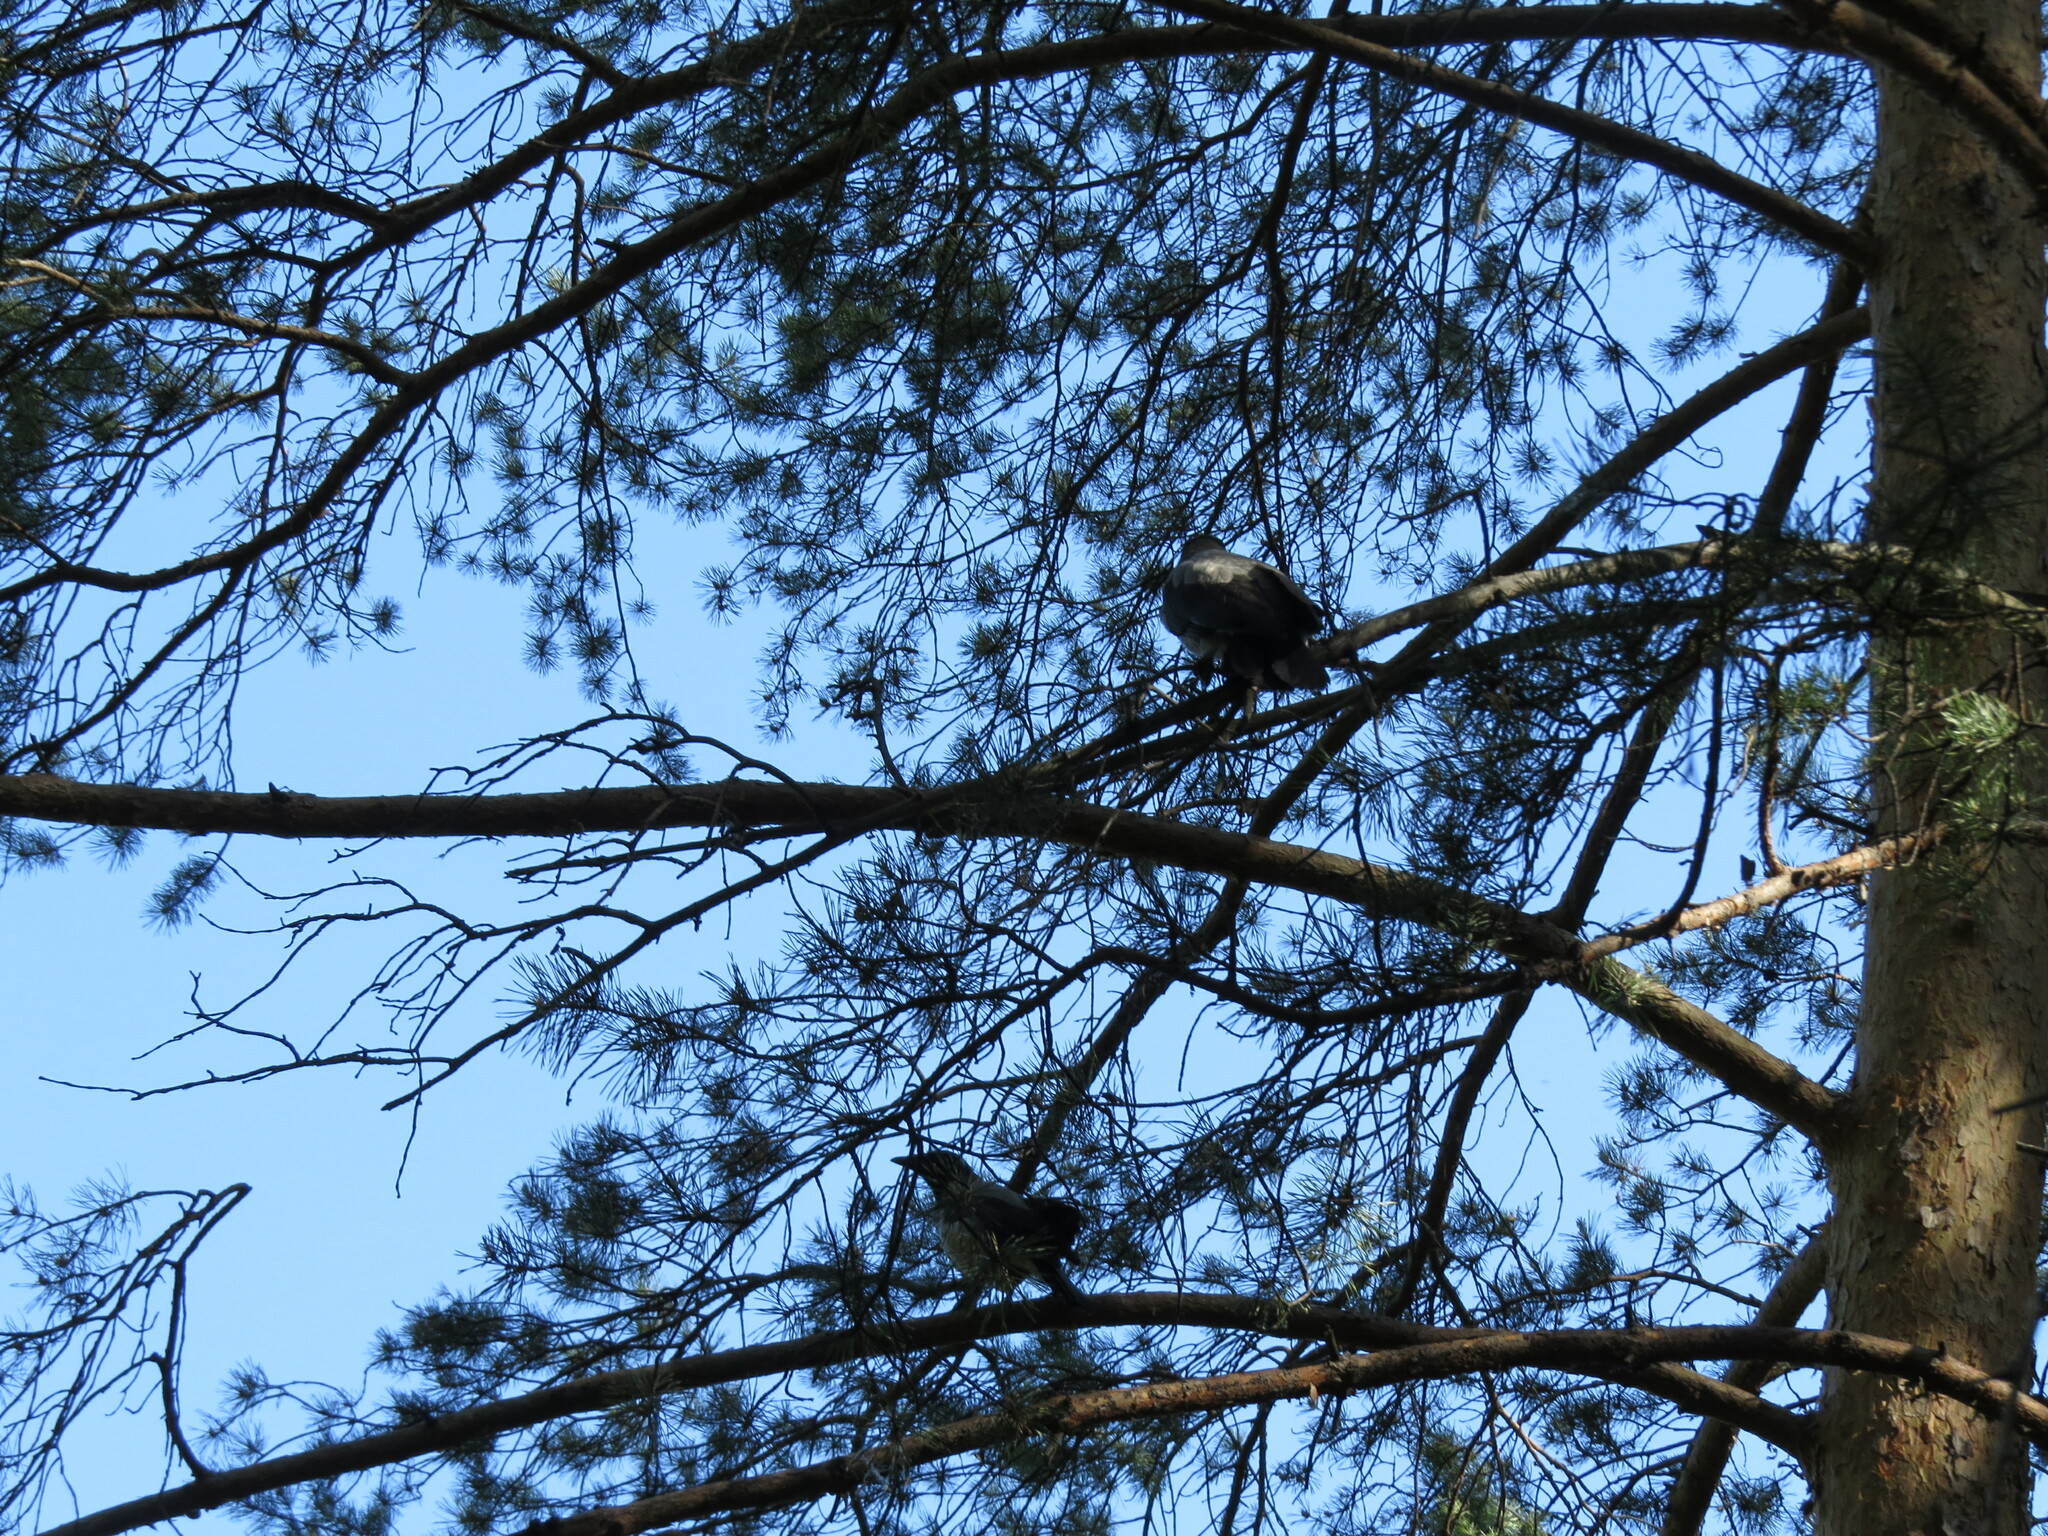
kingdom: Animalia
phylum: Chordata
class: Aves
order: Passeriformes
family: Corvidae
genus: Corvus
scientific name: Corvus cornix
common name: Hooded crow
